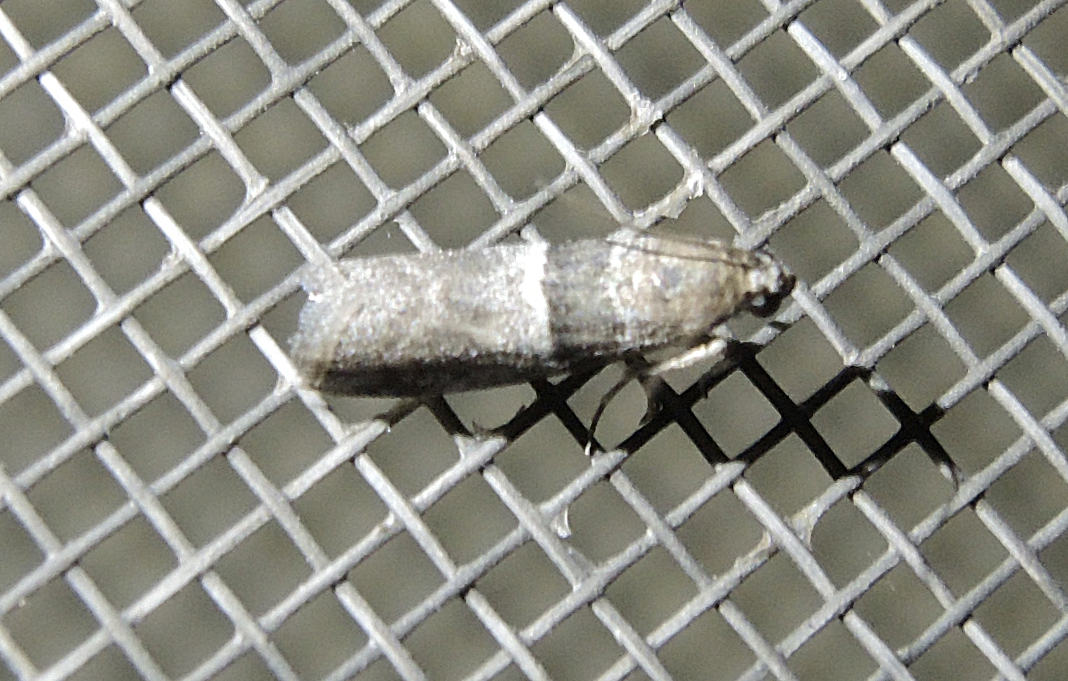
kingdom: Animalia
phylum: Arthropoda
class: Insecta
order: Lepidoptera
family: Pyralidae
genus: Elegia
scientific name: Elegia atrifasciella
